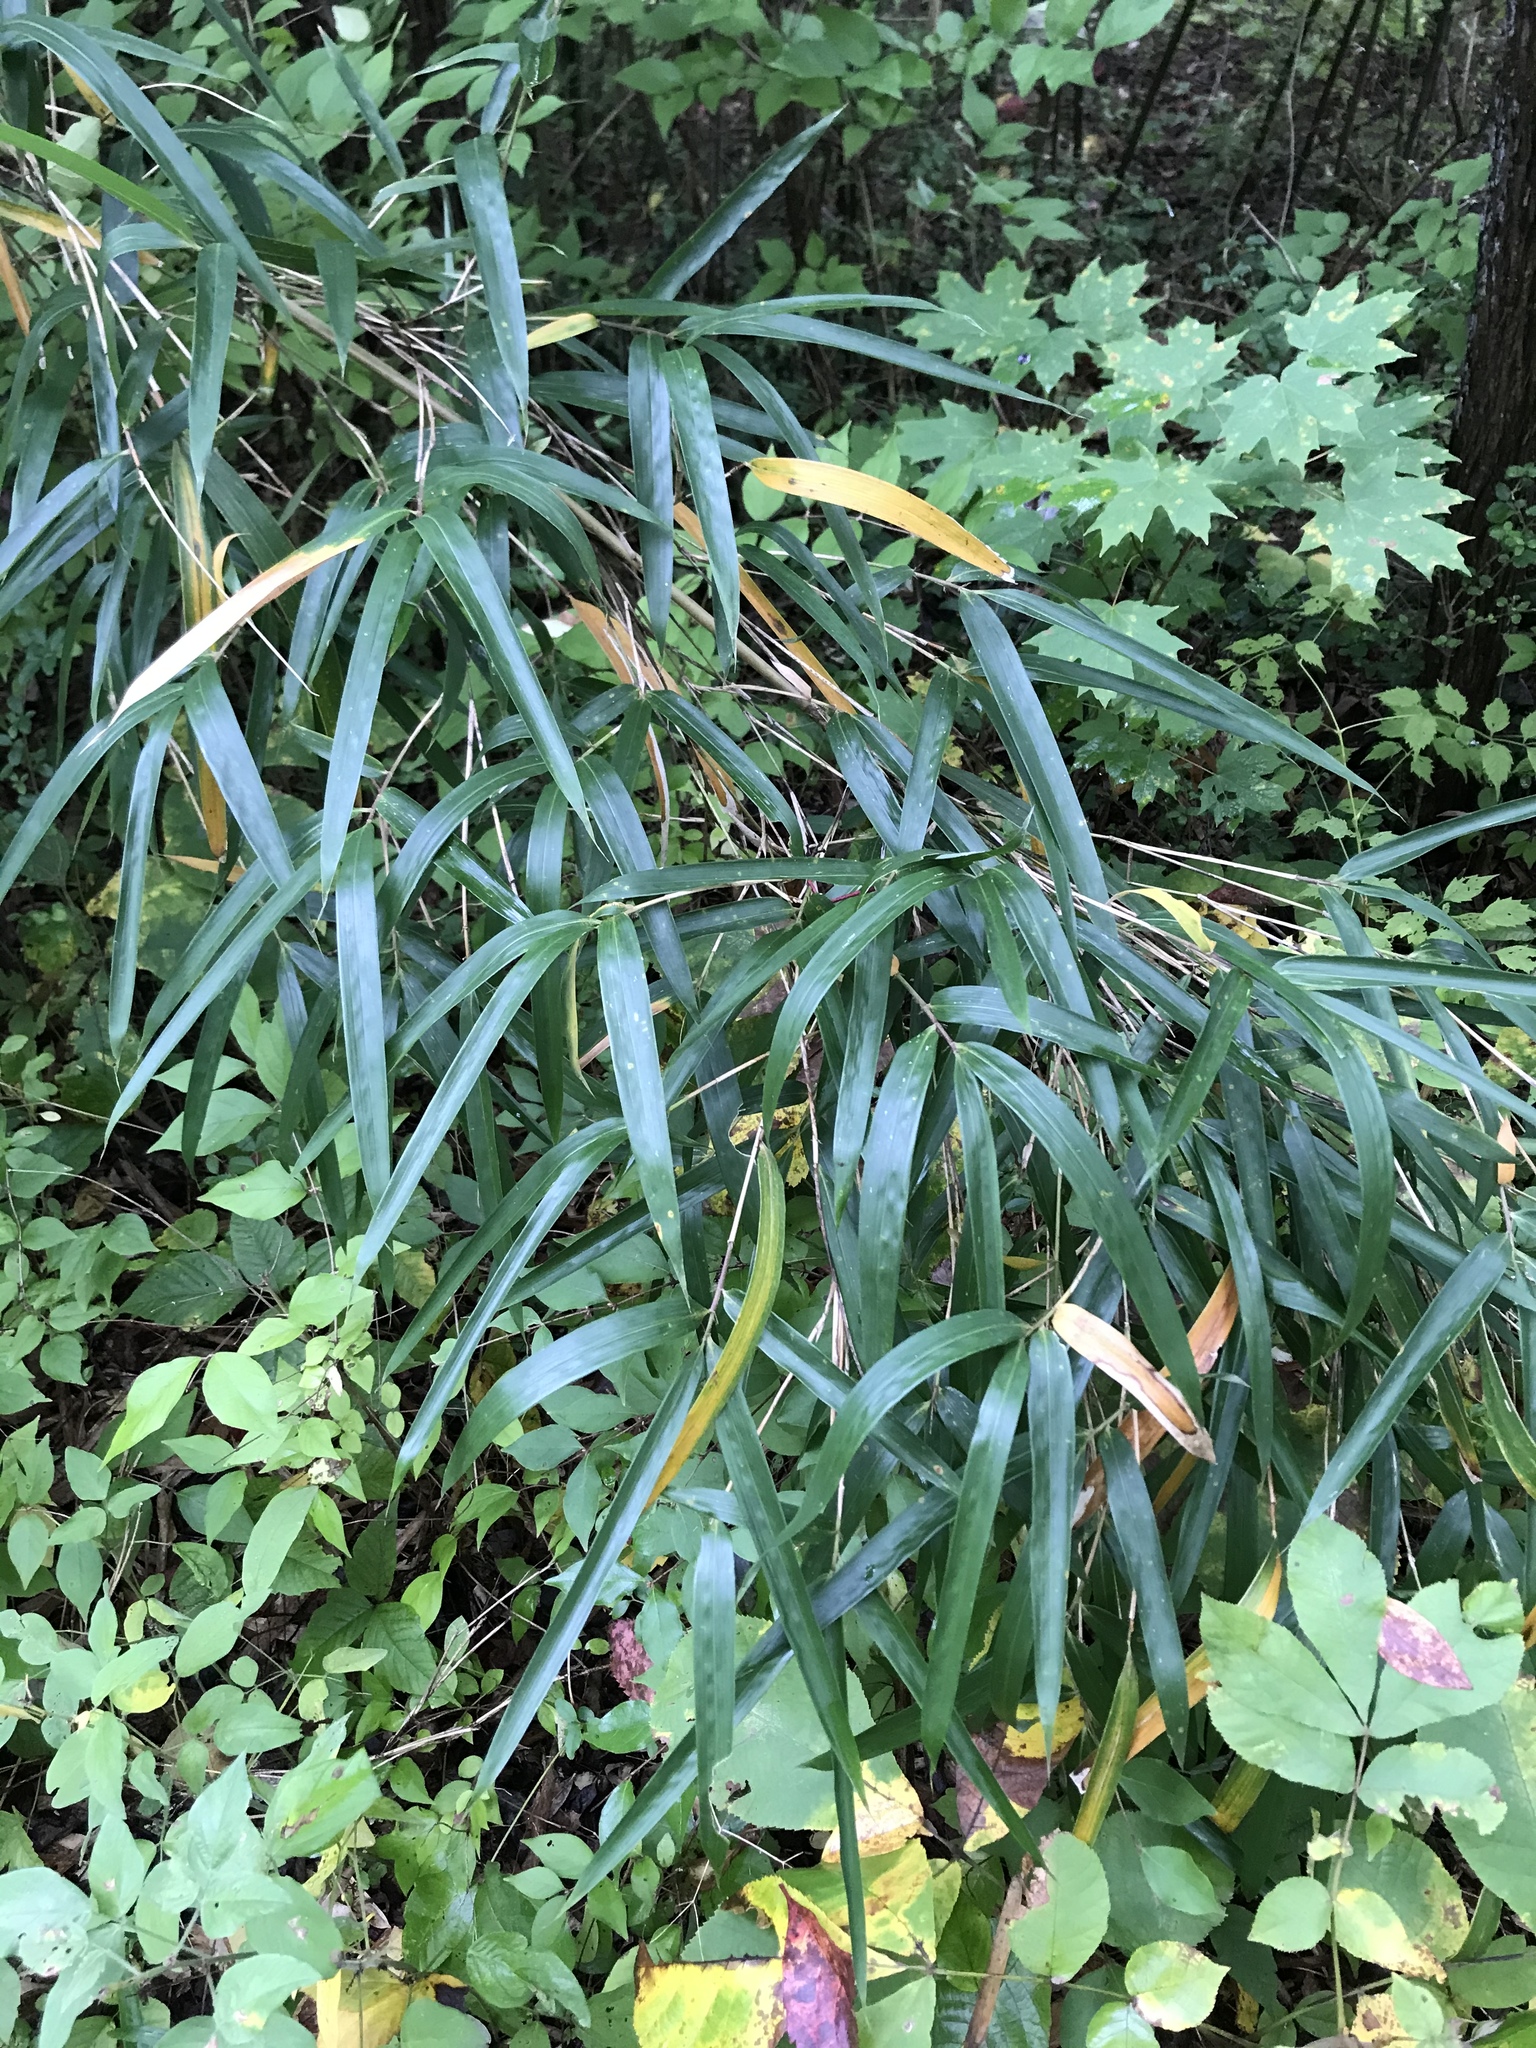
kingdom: Plantae
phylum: Tracheophyta
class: Liliopsida
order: Poales
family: Poaceae
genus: Arundinaria
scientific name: Arundinaria gigantea
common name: Giant cane
